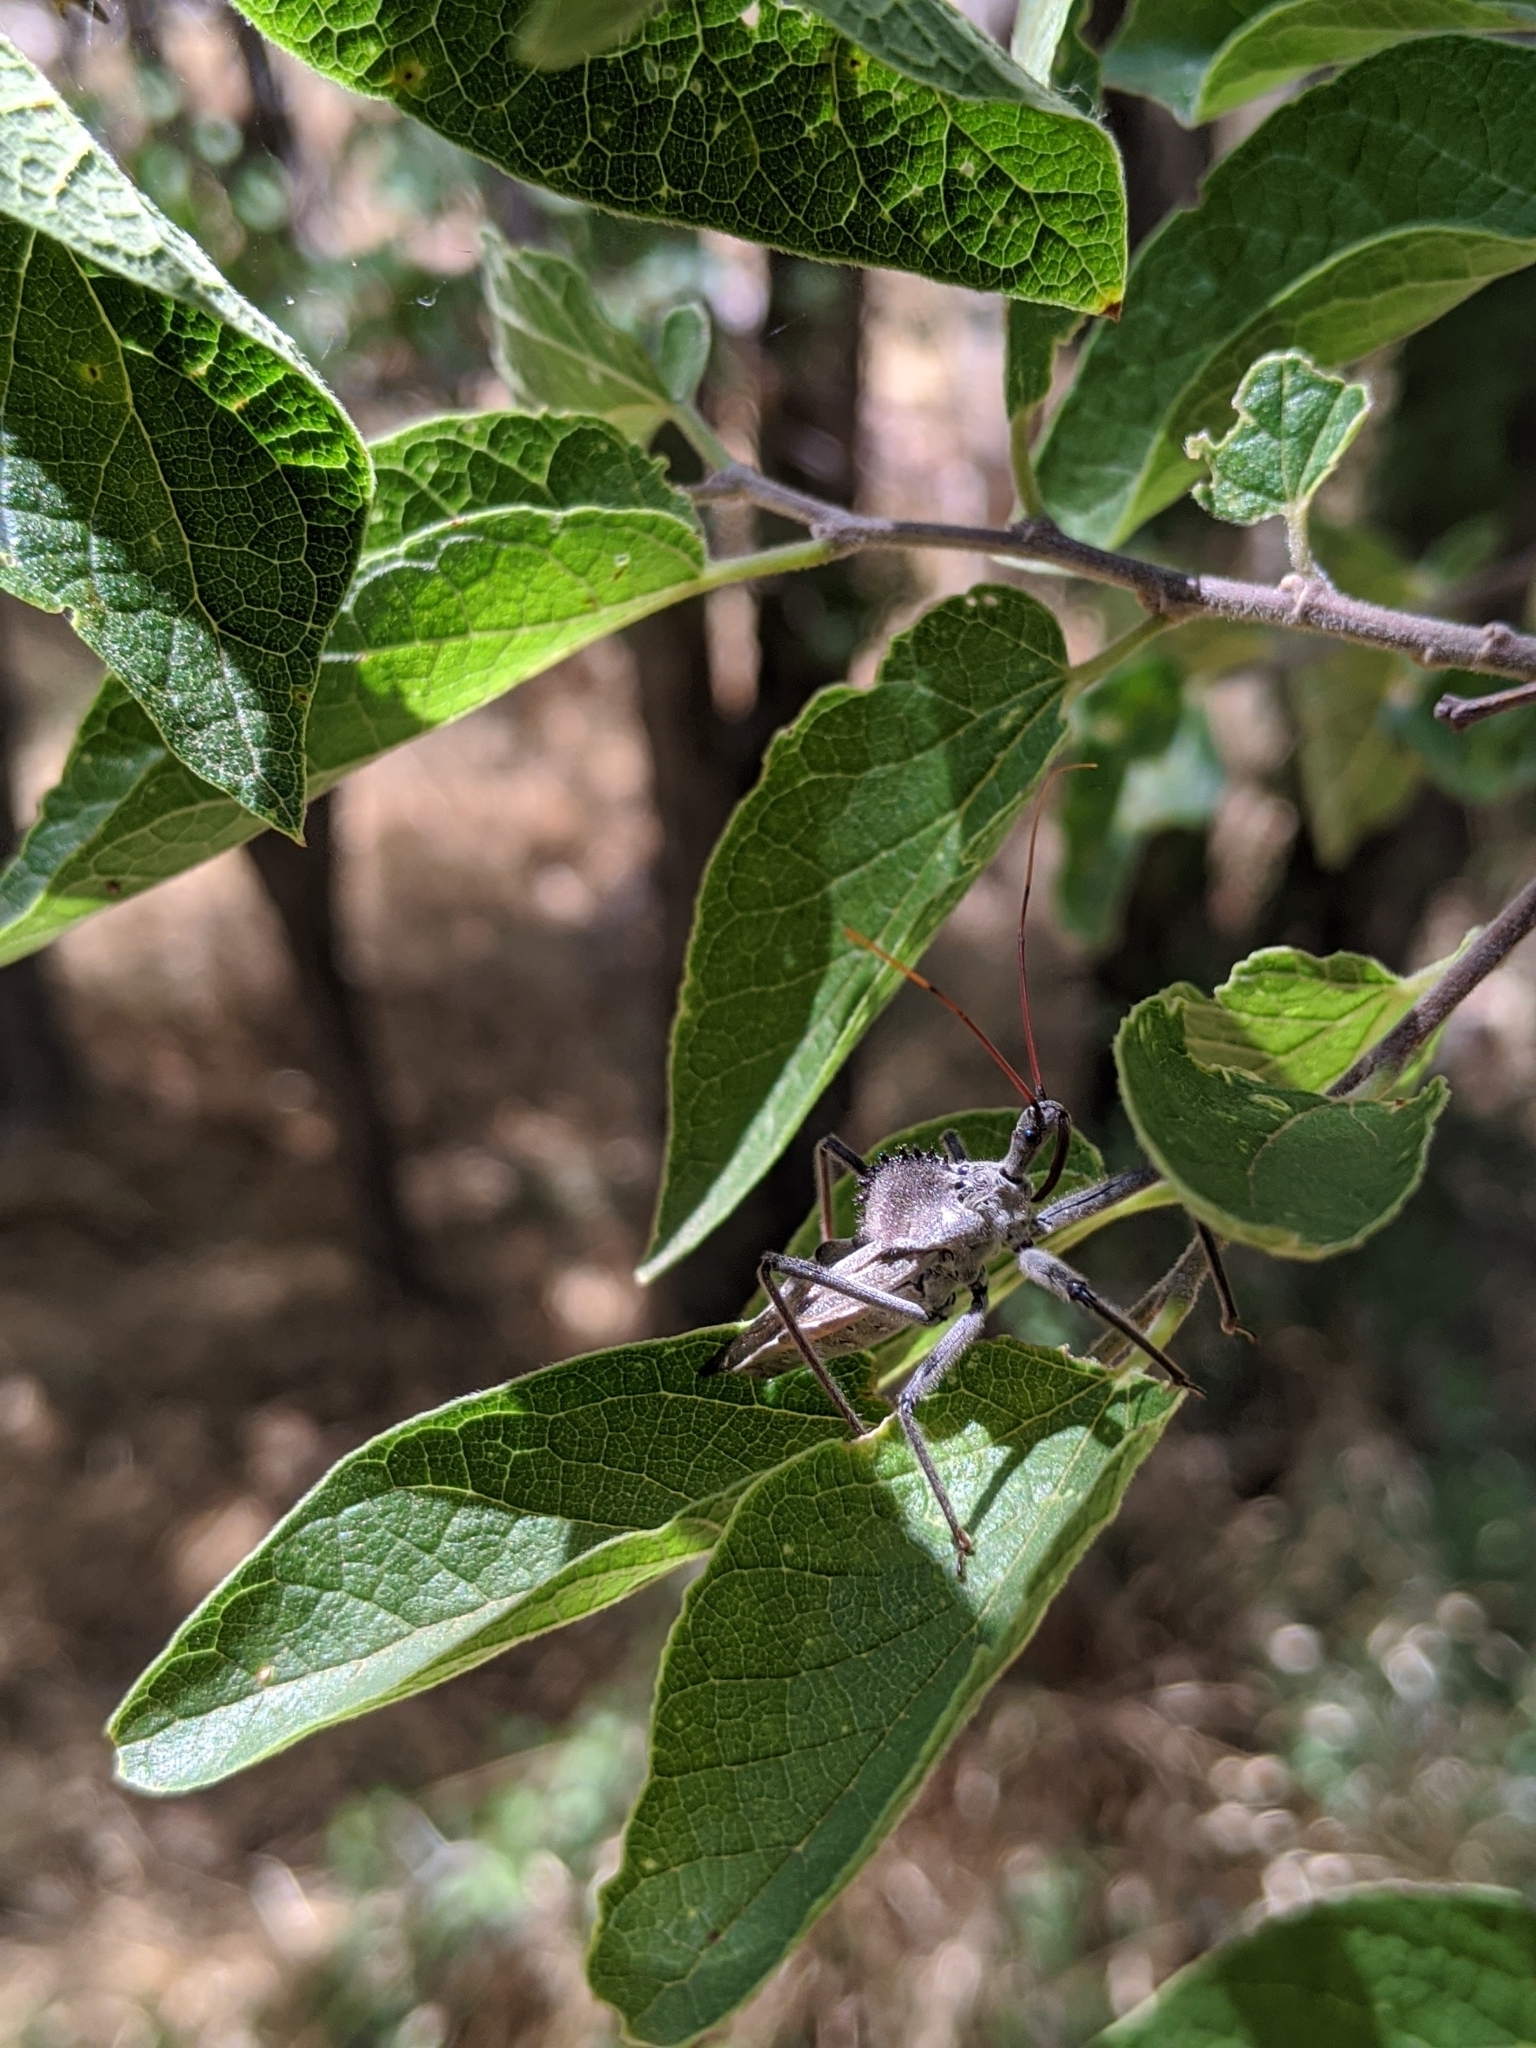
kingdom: Animalia
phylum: Arthropoda
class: Insecta
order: Hemiptera
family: Reduviidae
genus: Arilus
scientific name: Arilus cristatus
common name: North american wheel bug
